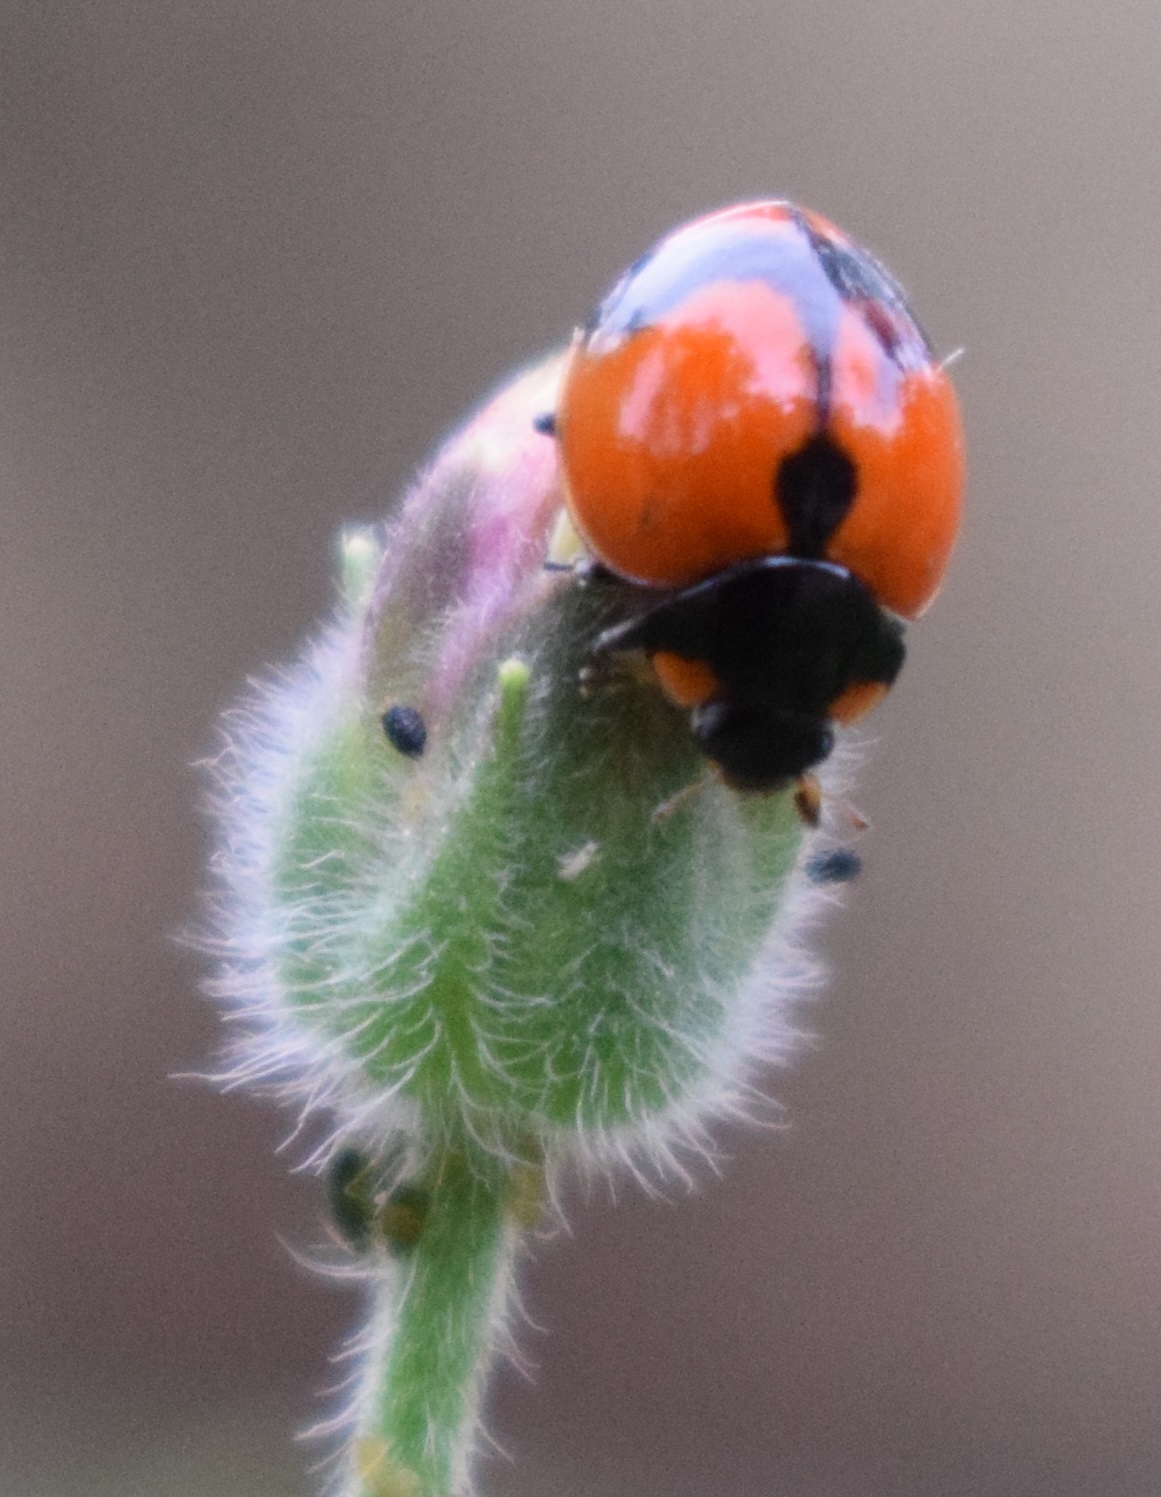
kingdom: Animalia
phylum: Arthropoda
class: Insecta
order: Coleoptera
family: Coccinellidae
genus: Coccinella
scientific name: Coccinella transversalis
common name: Transverse lady beetle
